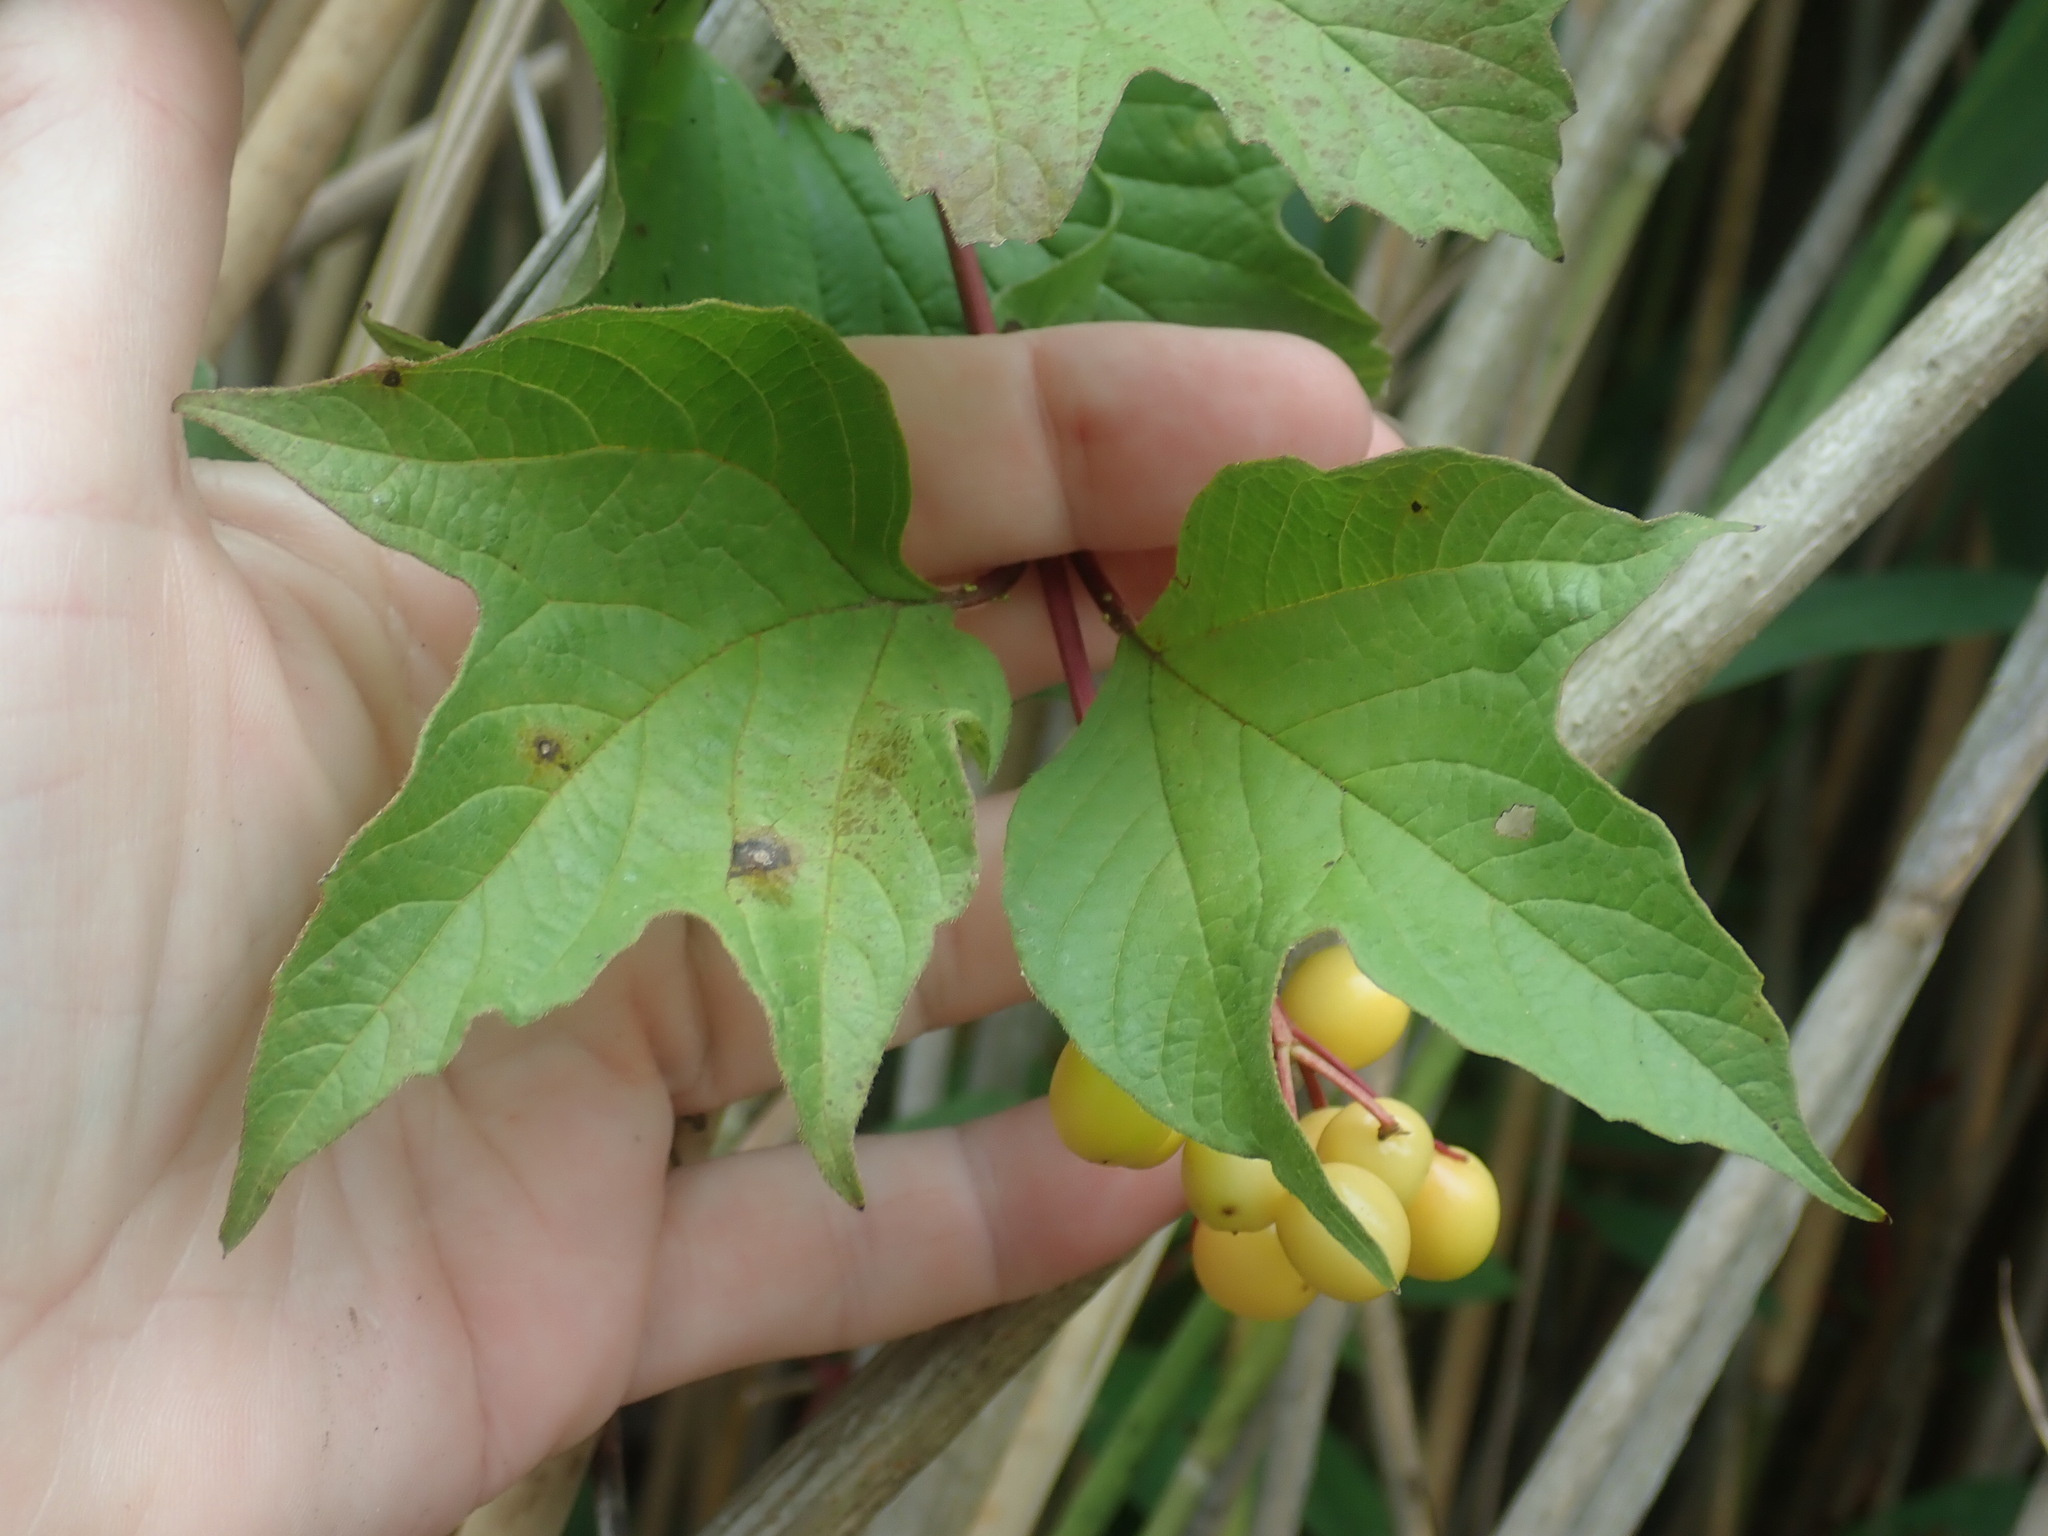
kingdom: Plantae
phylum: Tracheophyta
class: Magnoliopsida
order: Dipsacales
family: Viburnaceae
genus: Viburnum
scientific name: Viburnum opulus
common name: Guelder-rose
